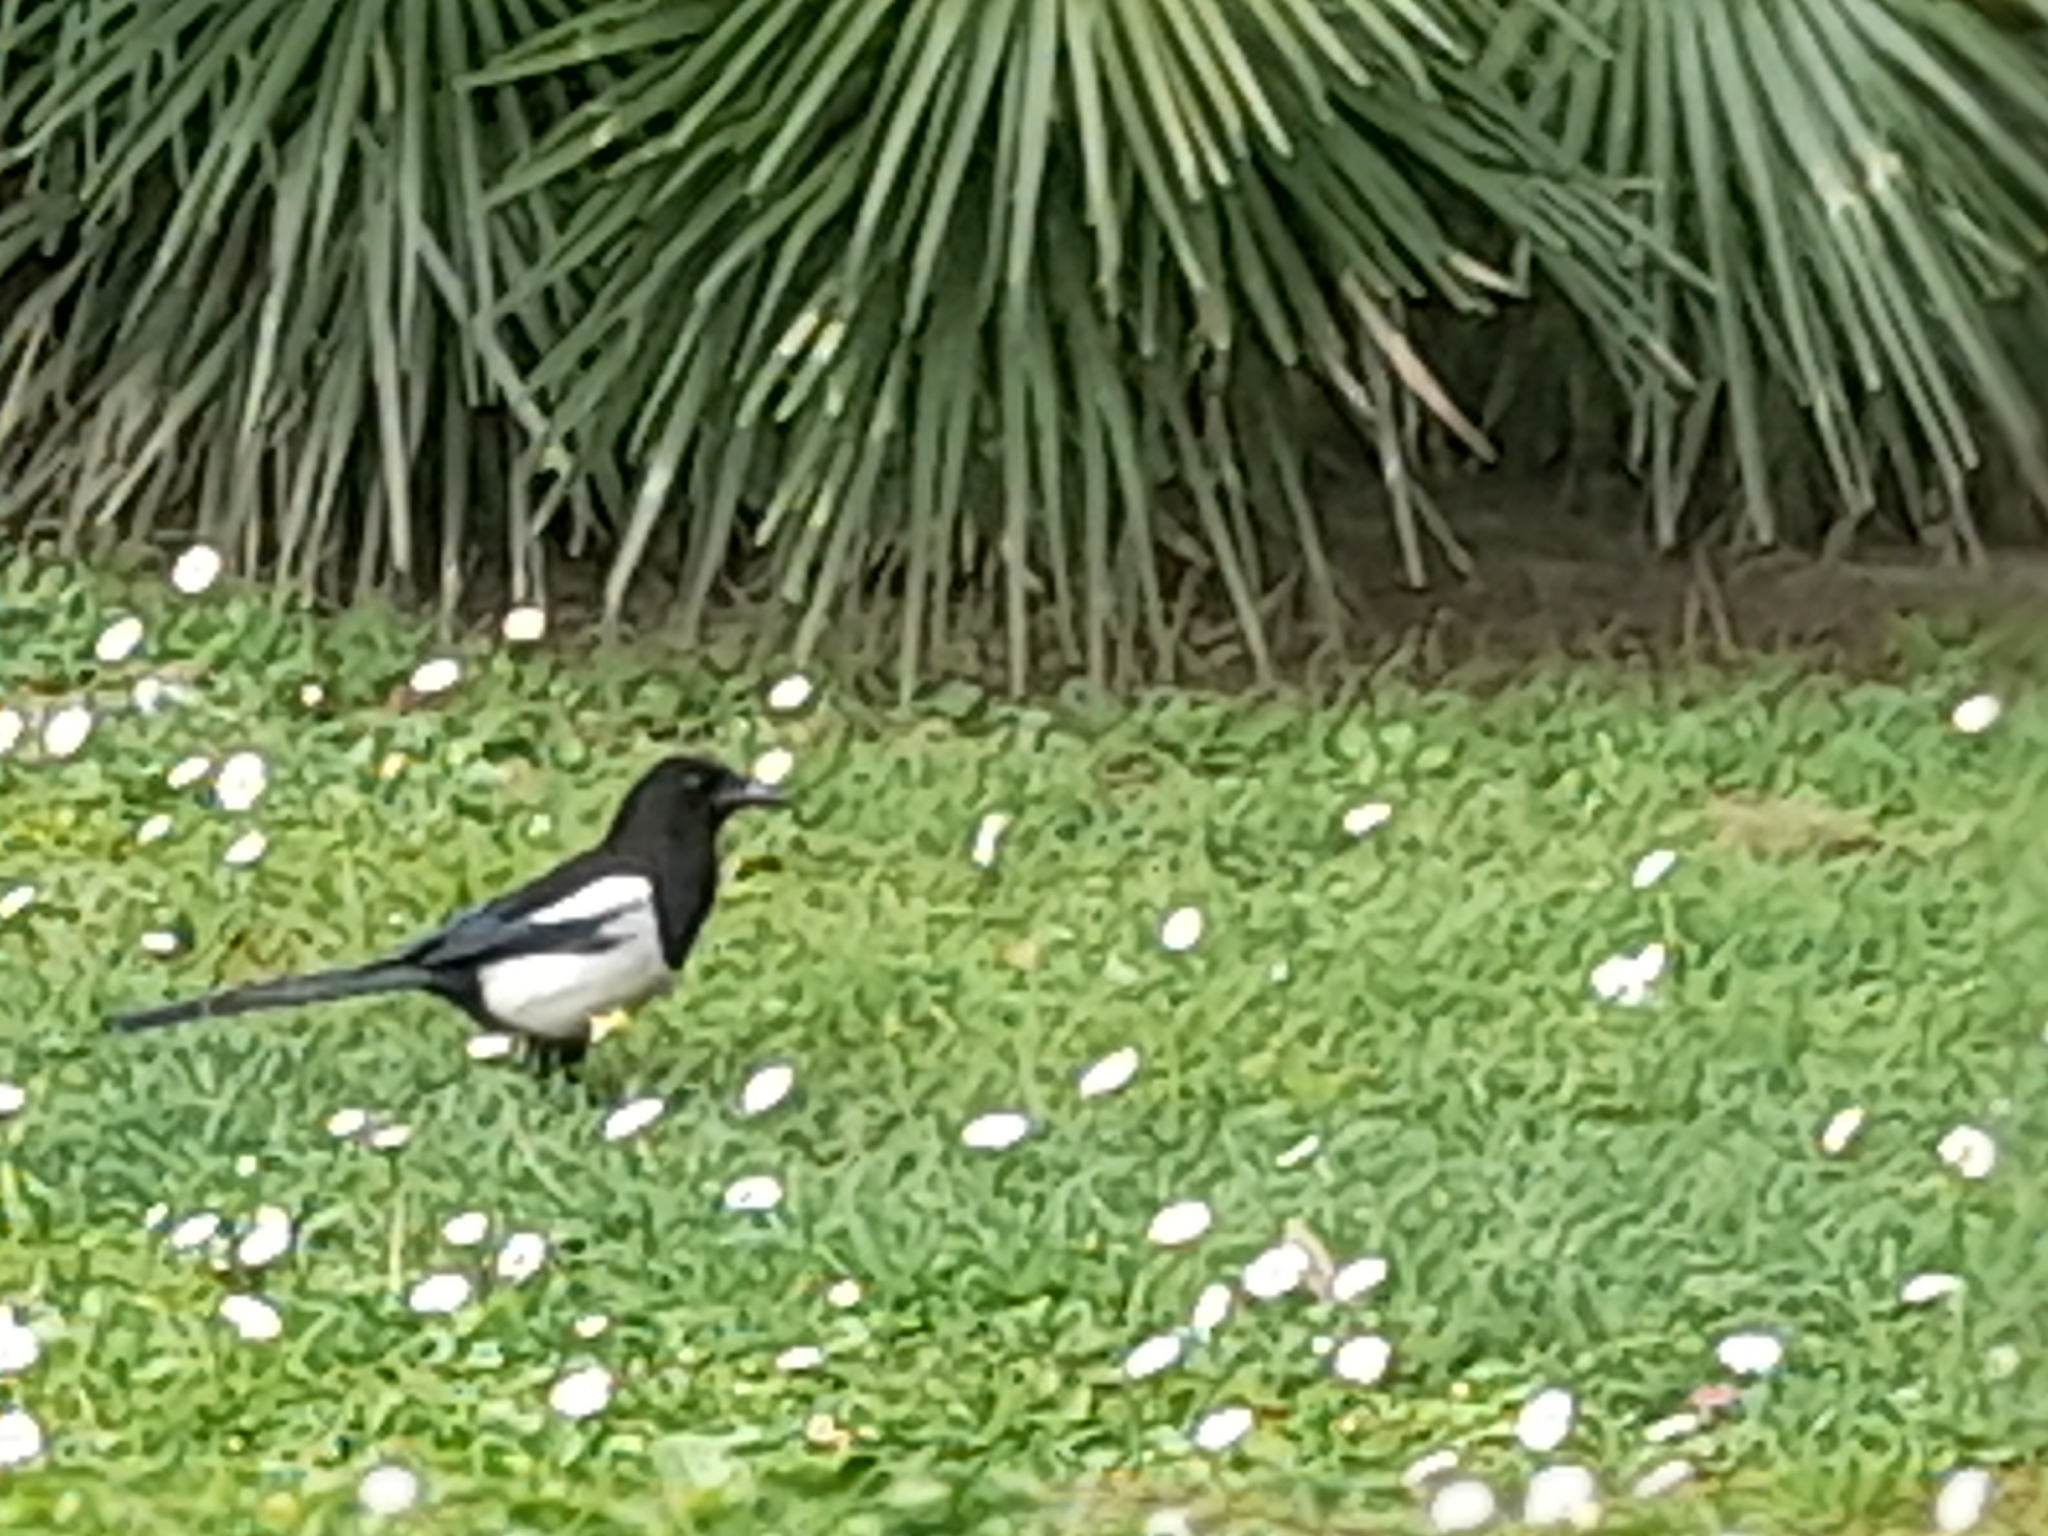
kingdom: Animalia
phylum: Chordata
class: Aves
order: Passeriformes
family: Corvidae
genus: Pica
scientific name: Pica pica
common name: Eurasian magpie
